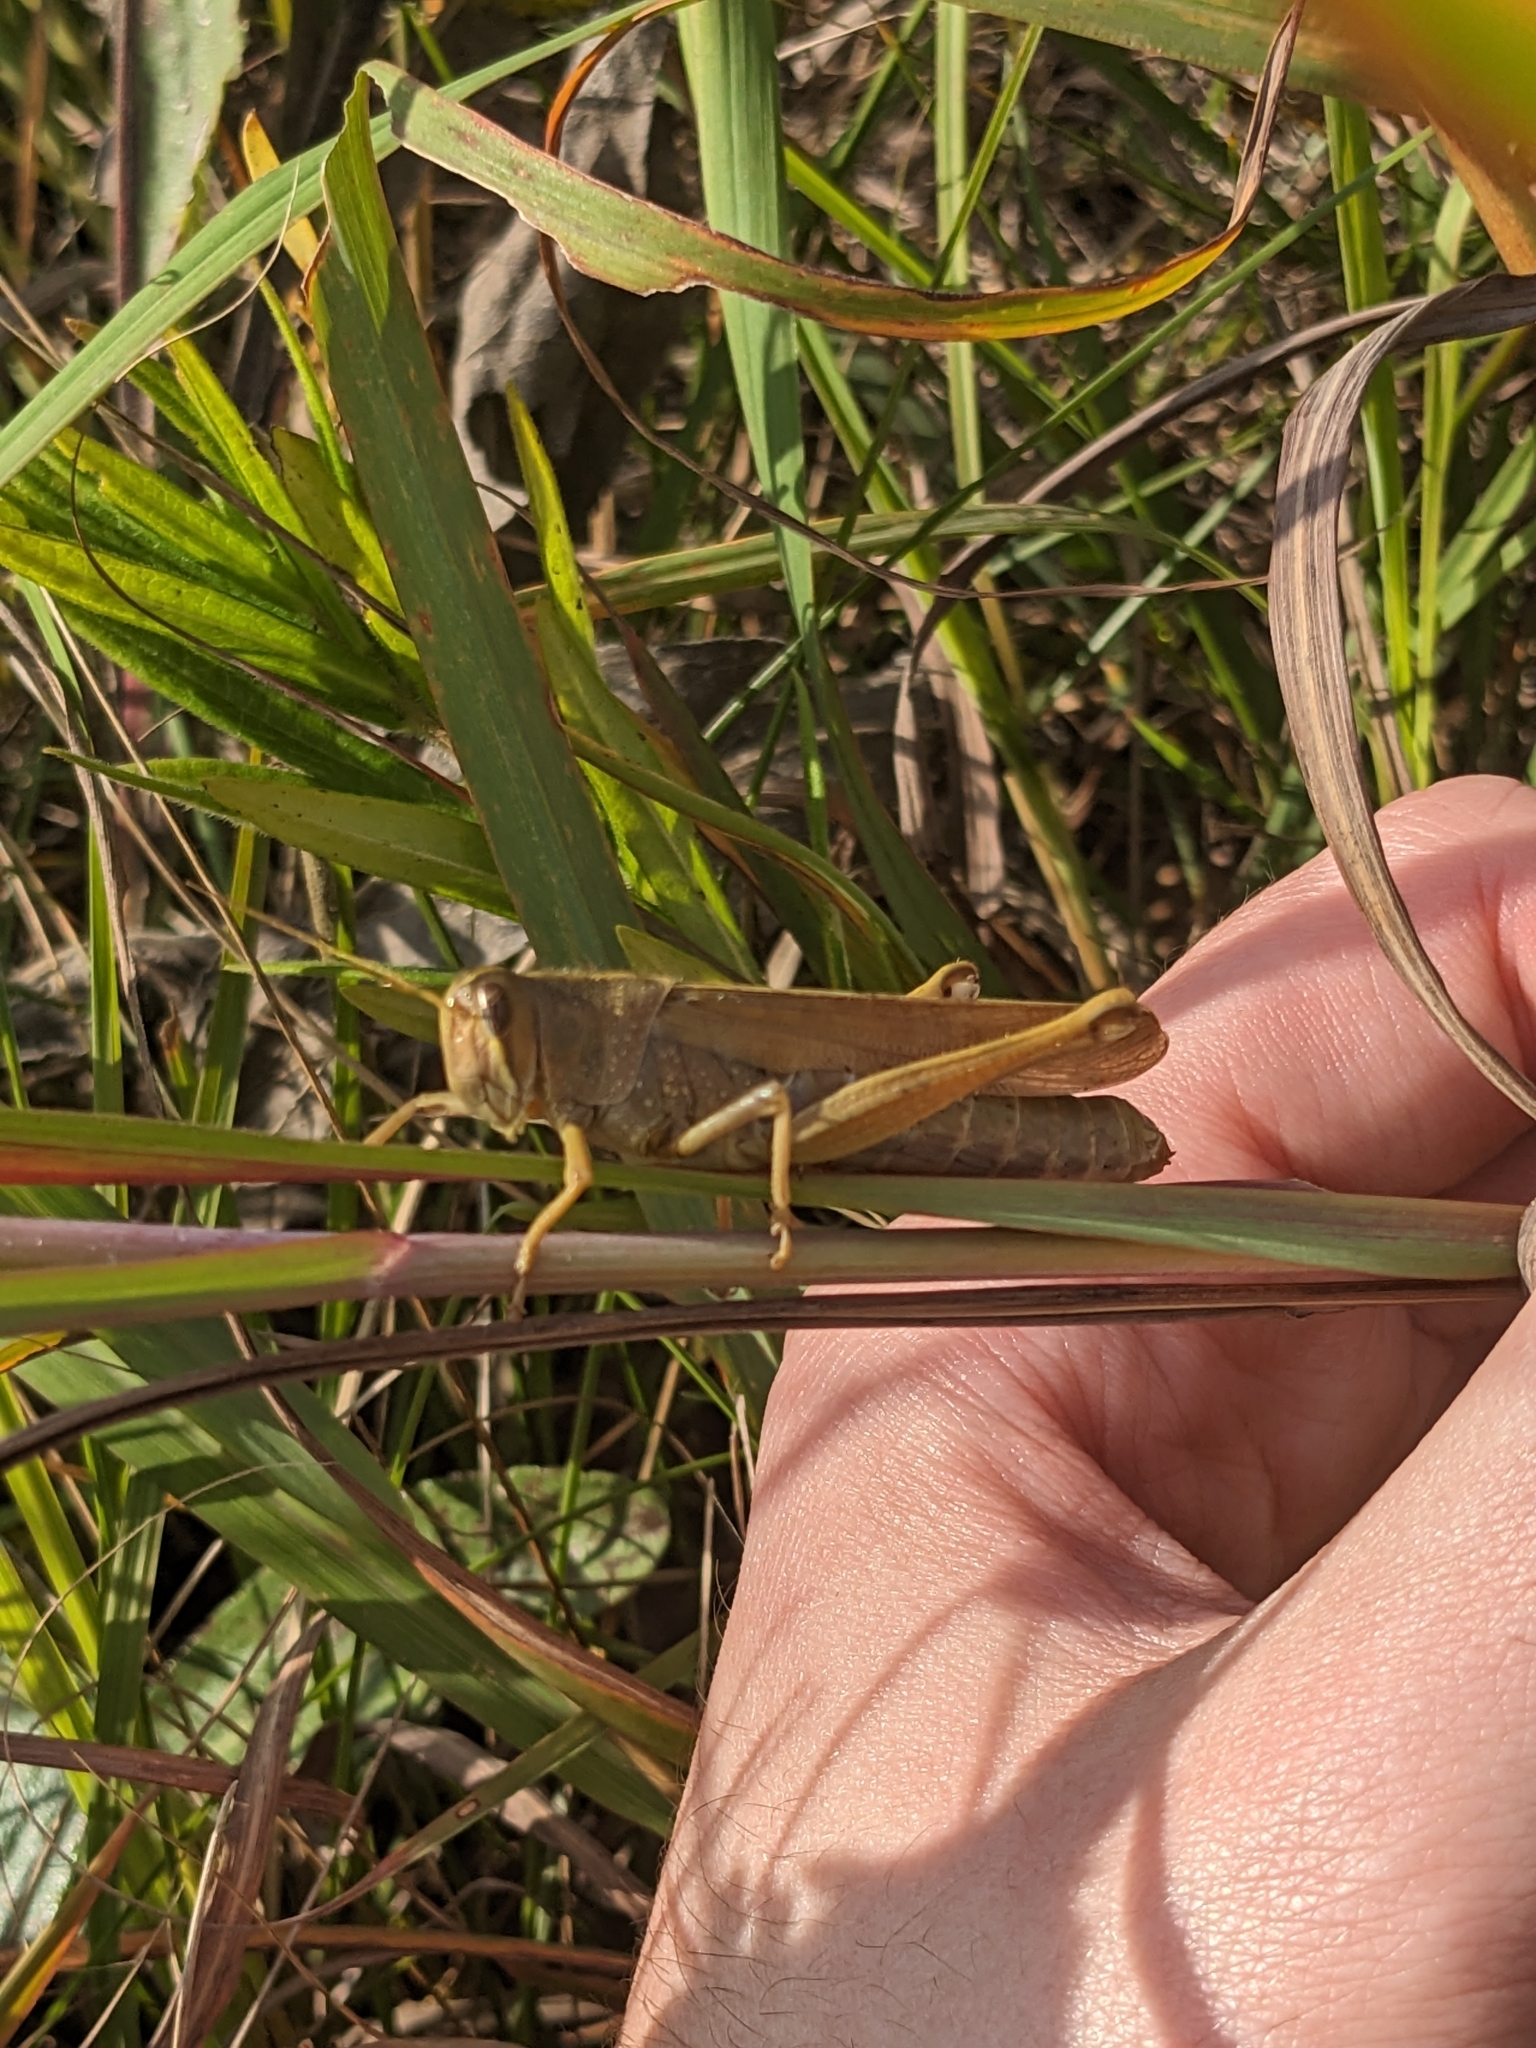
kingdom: Animalia
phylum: Arthropoda
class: Insecta
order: Orthoptera
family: Acrididae
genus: Schistocerca
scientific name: Schistocerca lineata
